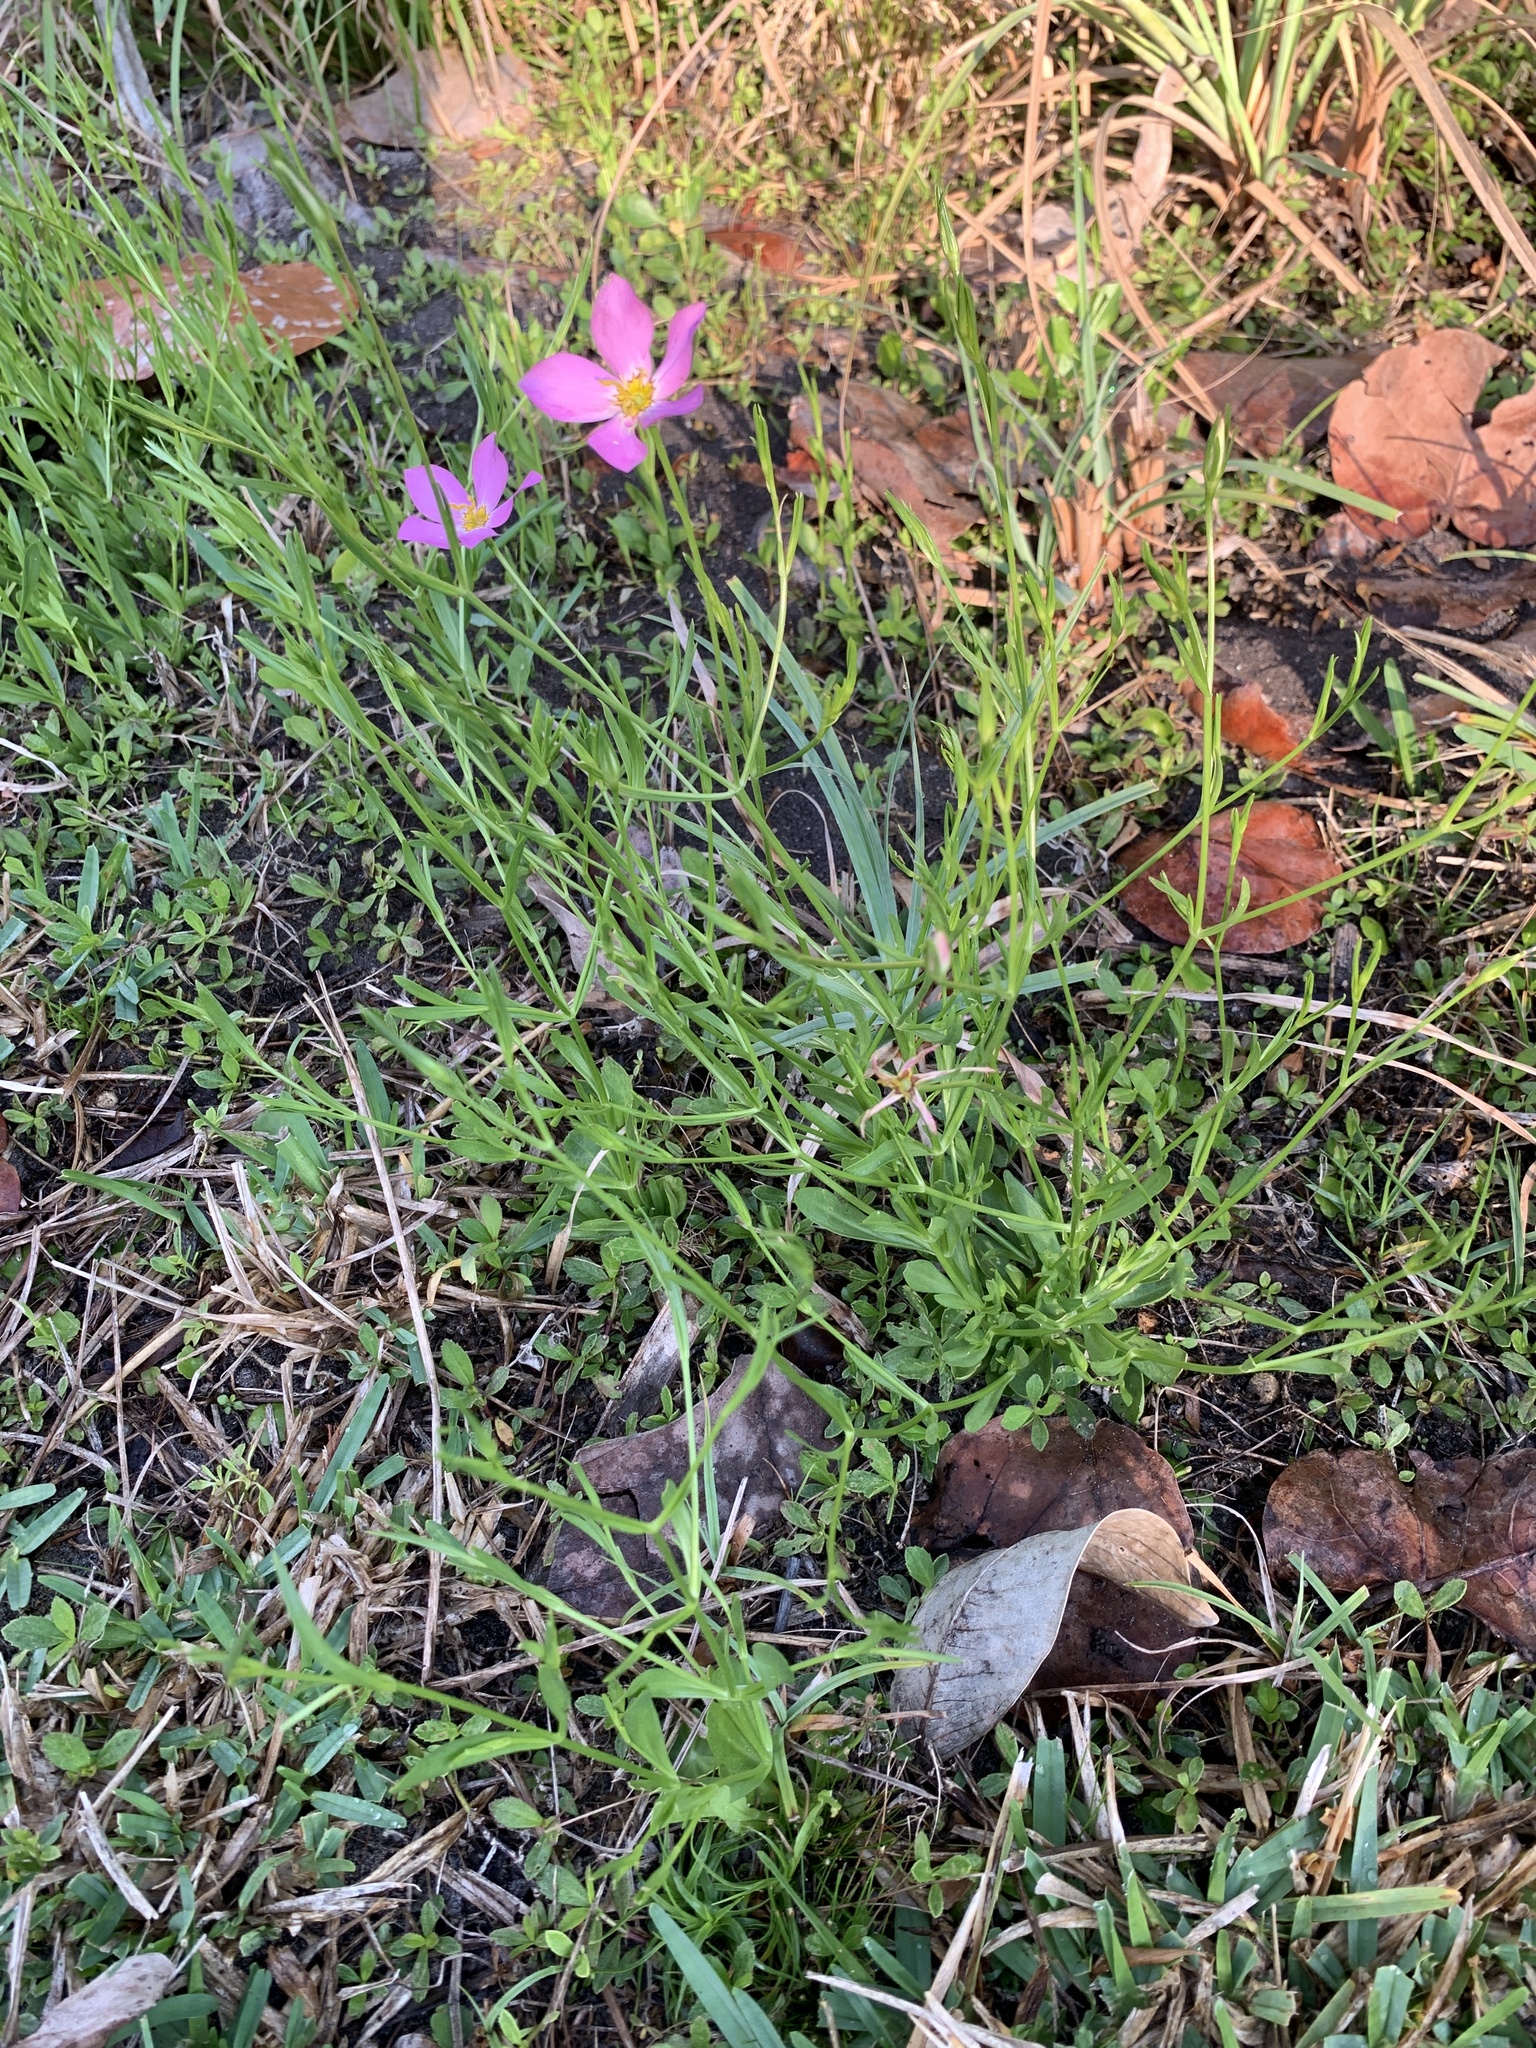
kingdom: Plantae
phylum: Tracheophyta
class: Magnoliopsida
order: Gentianales
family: Gentianaceae
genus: Sabatia
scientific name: Sabatia stellaris
